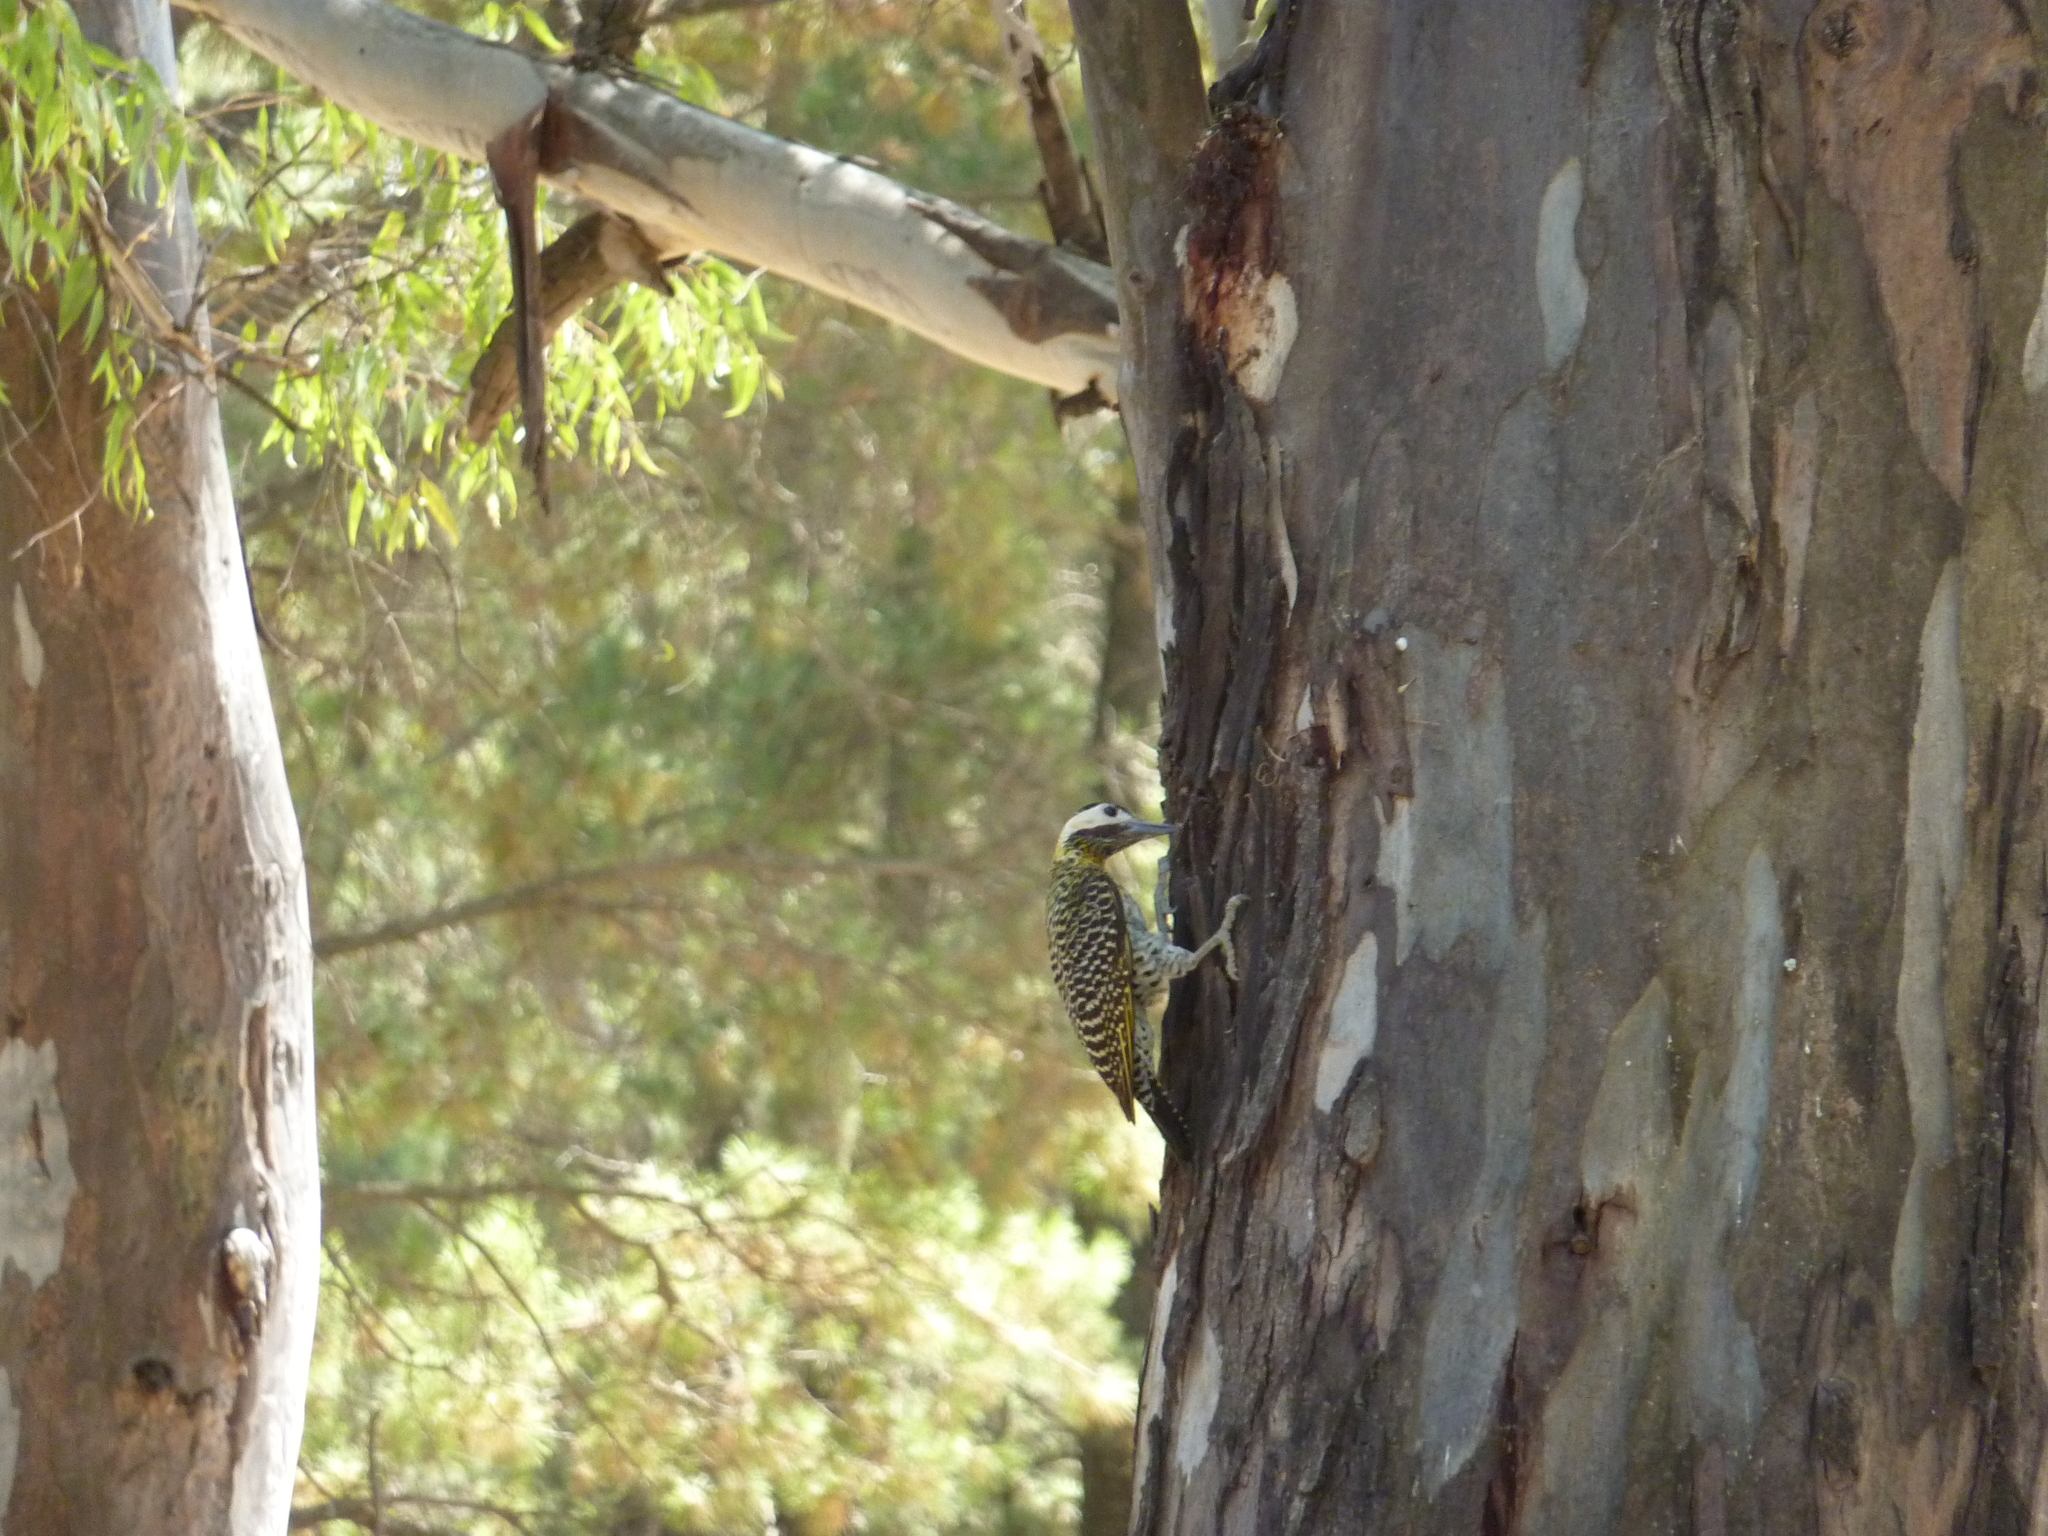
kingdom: Animalia
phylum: Chordata
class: Aves
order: Piciformes
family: Picidae
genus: Colaptes
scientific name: Colaptes melanochloros
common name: Green-barred woodpecker
